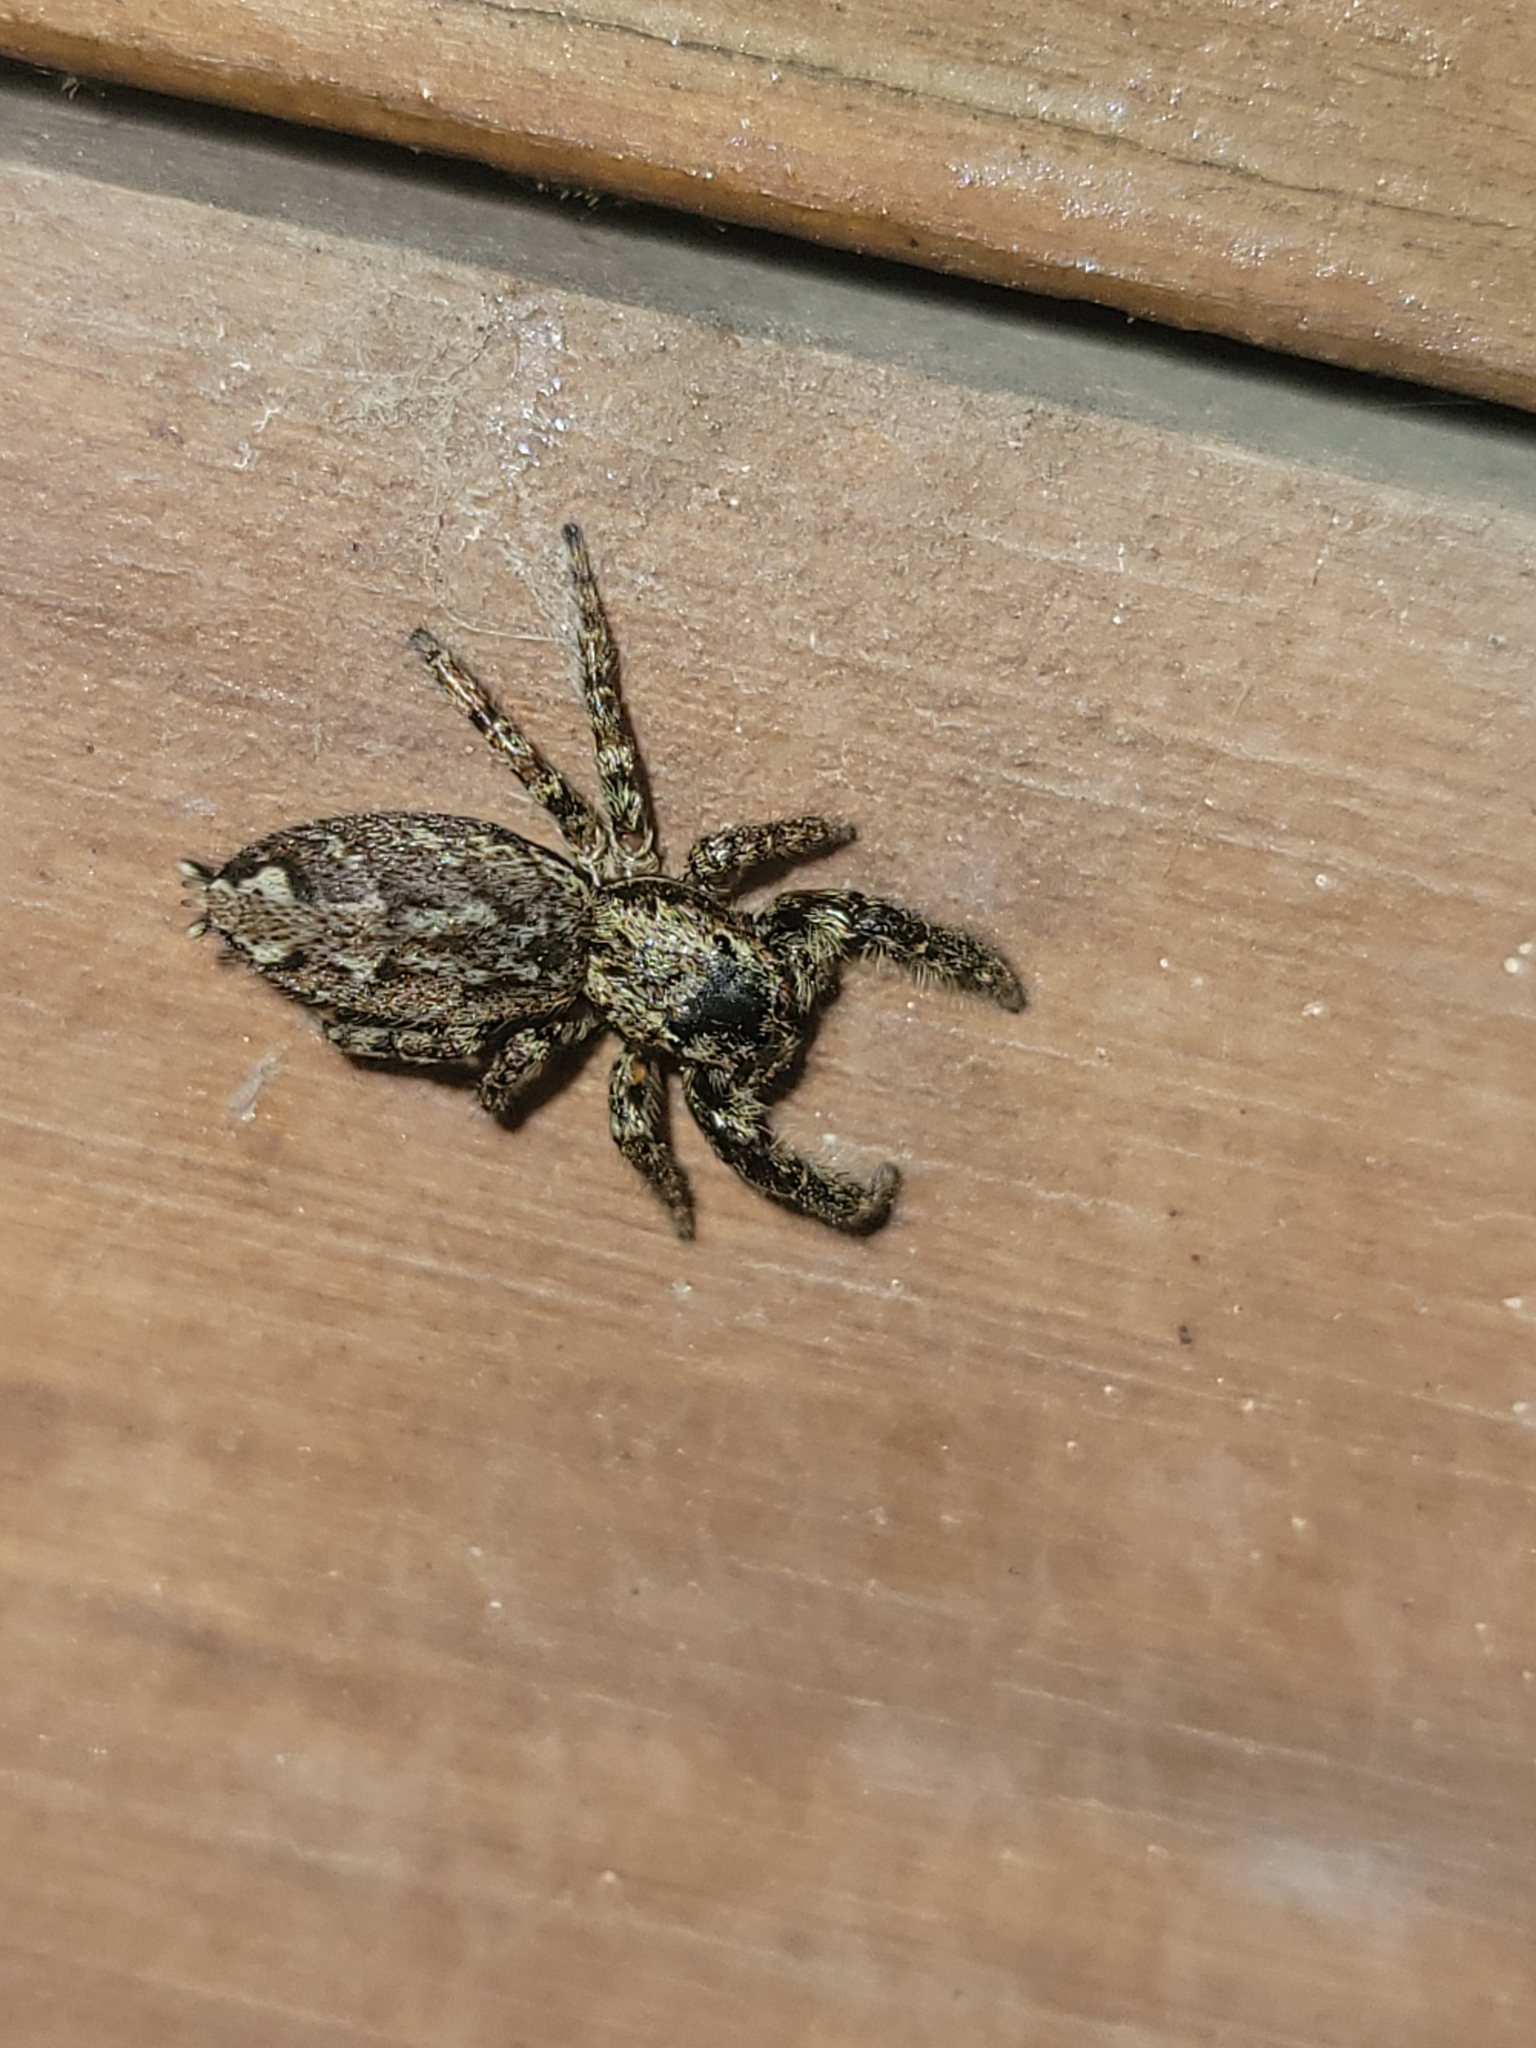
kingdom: Animalia
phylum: Arthropoda
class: Arachnida
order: Araneae
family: Salticidae
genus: Marpissa
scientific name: Marpissa muscosa
